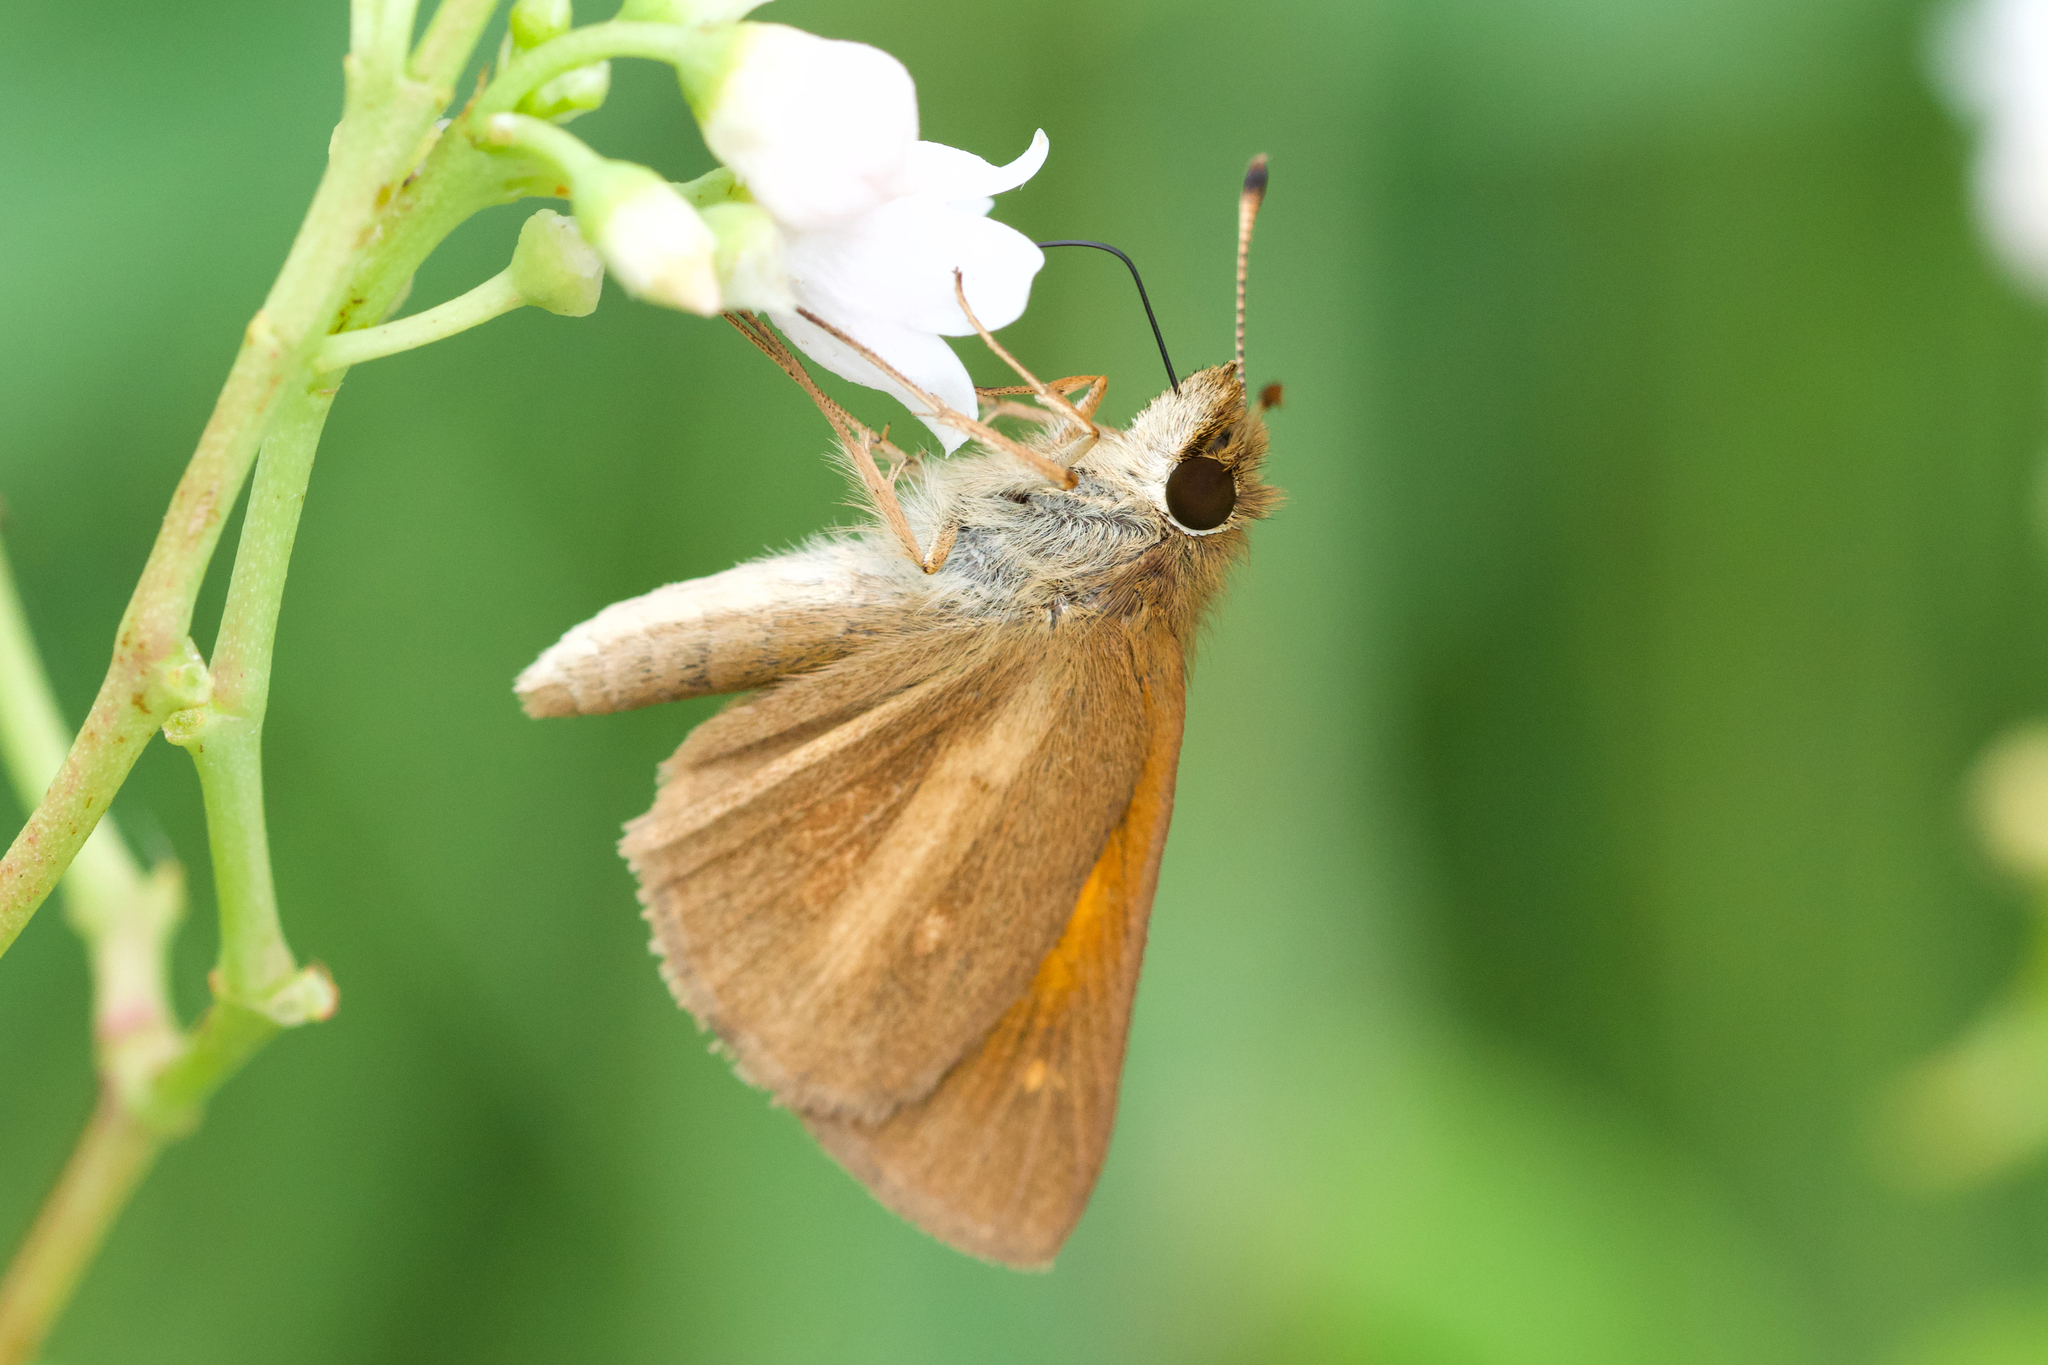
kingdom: Animalia
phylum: Arthropoda
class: Insecta
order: Lepidoptera
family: Hesperiidae
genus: Poanes
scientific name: Poanes viator
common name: Broad-winged skipper
